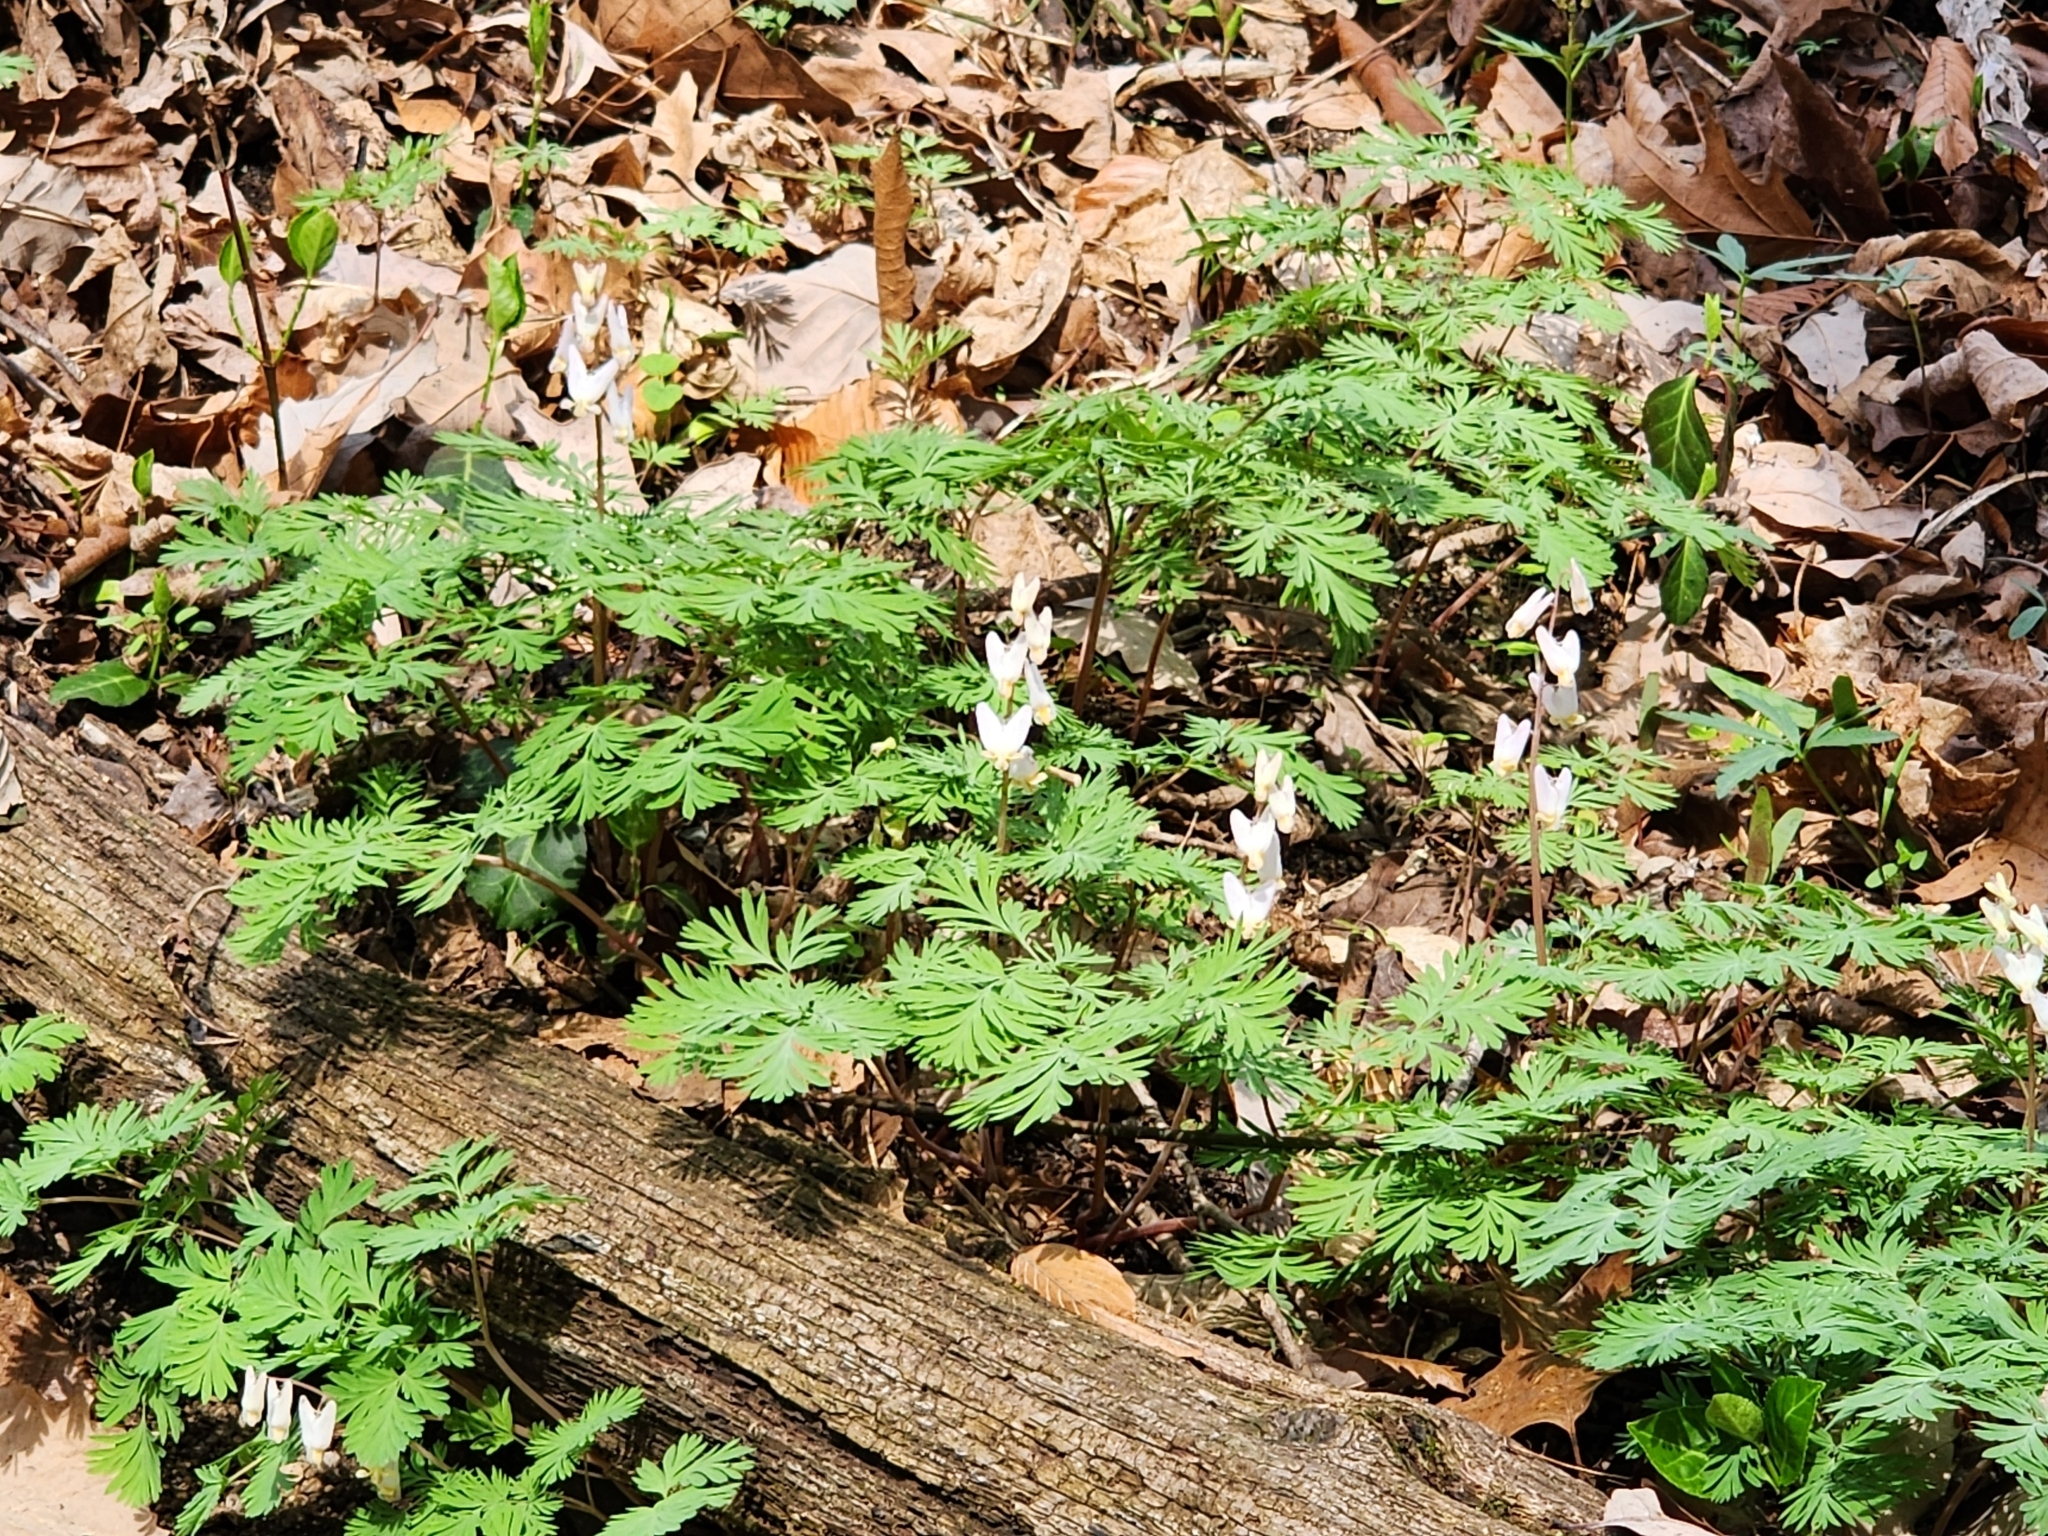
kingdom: Plantae
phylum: Tracheophyta
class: Magnoliopsida
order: Ranunculales
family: Papaveraceae
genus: Dicentra
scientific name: Dicentra cucullaria
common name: Dutchman's breeches
